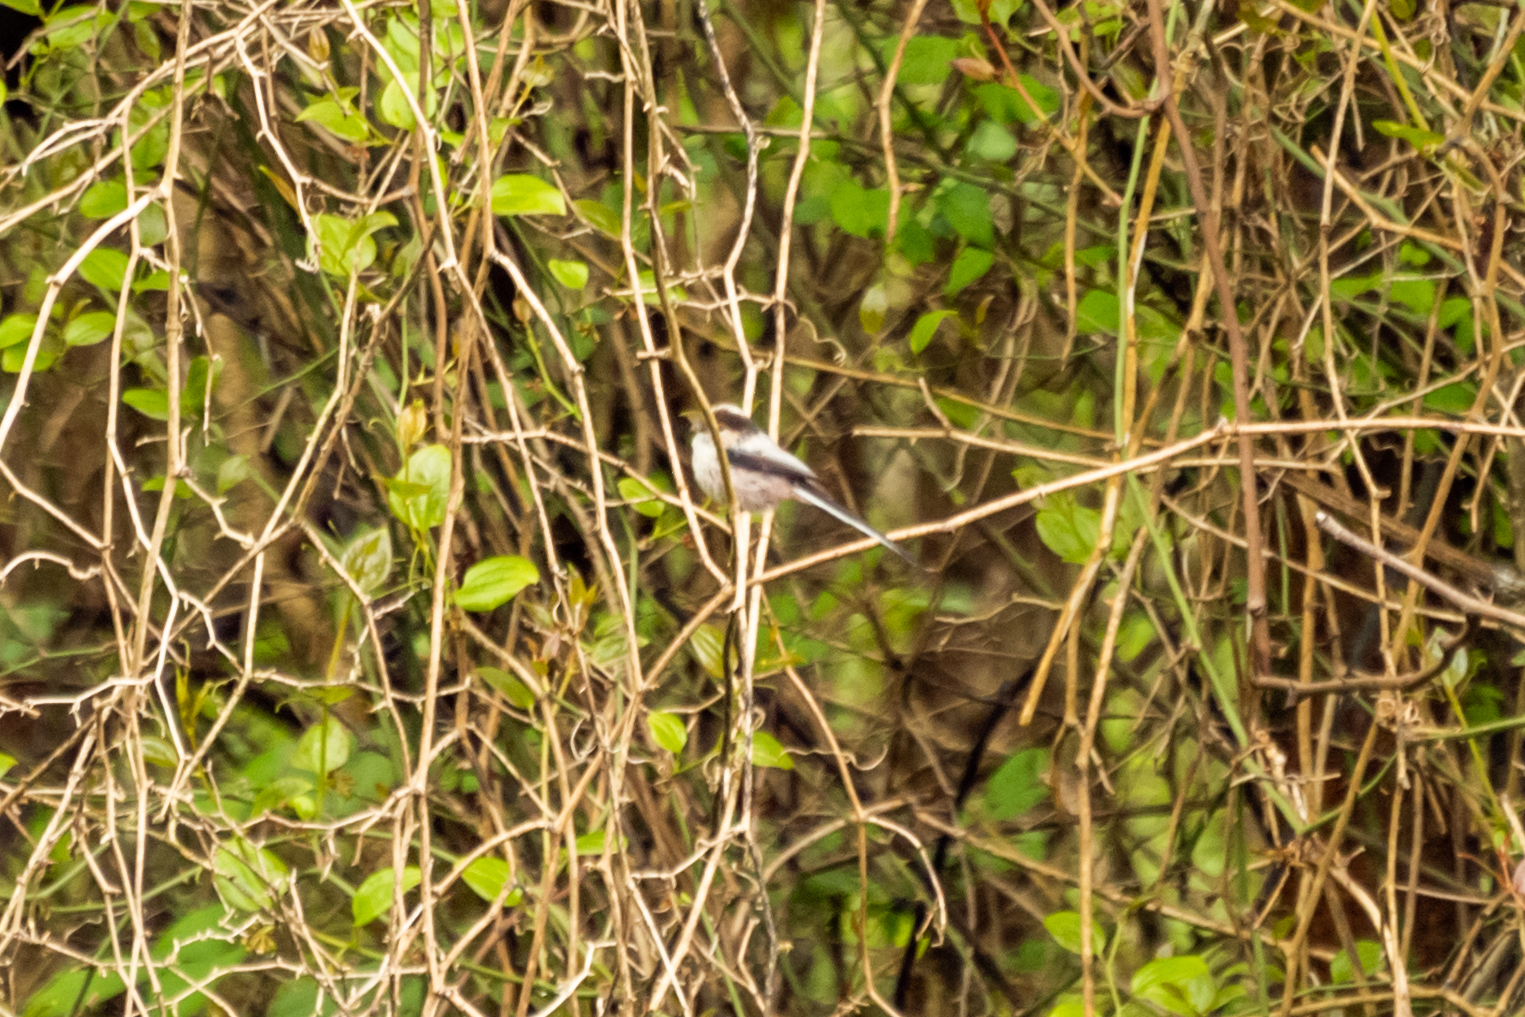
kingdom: Animalia
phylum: Chordata
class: Aves
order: Passeriformes
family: Aegithalidae
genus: Aegithalos
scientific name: Aegithalos caudatus
